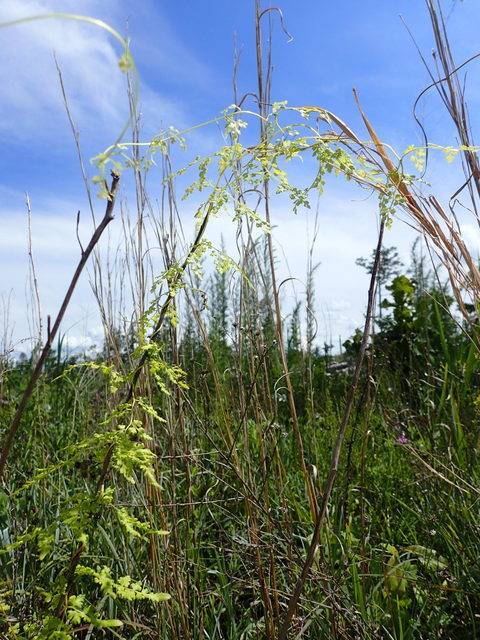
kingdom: Plantae
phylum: Tracheophyta
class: Polypodiopsida
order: Schizaeales
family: Lygodiaceae
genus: Lygodium
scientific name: Lygodium japonicum
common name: Japanese climbing fern
